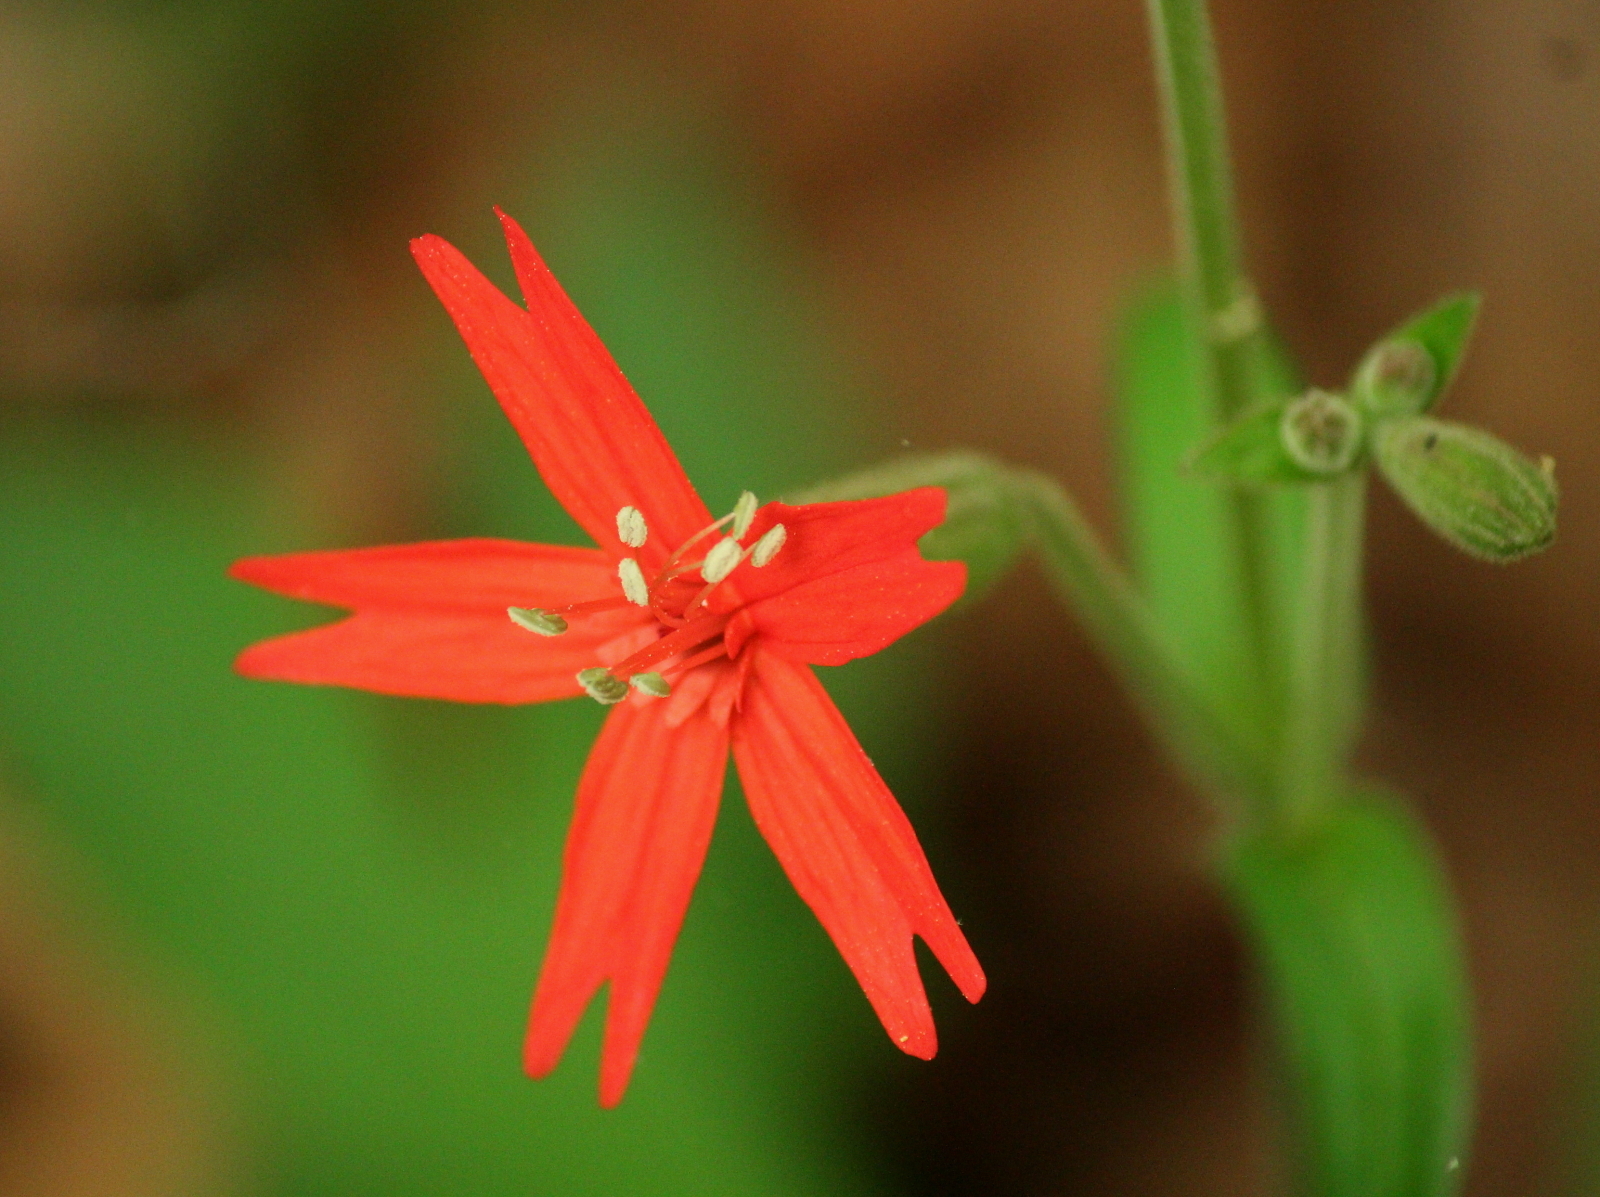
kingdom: Plantae
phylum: Tracheophyta
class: Magnoliopsida
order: Caryophyllales
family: Caryophyllaceae
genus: Silene
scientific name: Silene virginica
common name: Fire-pink
